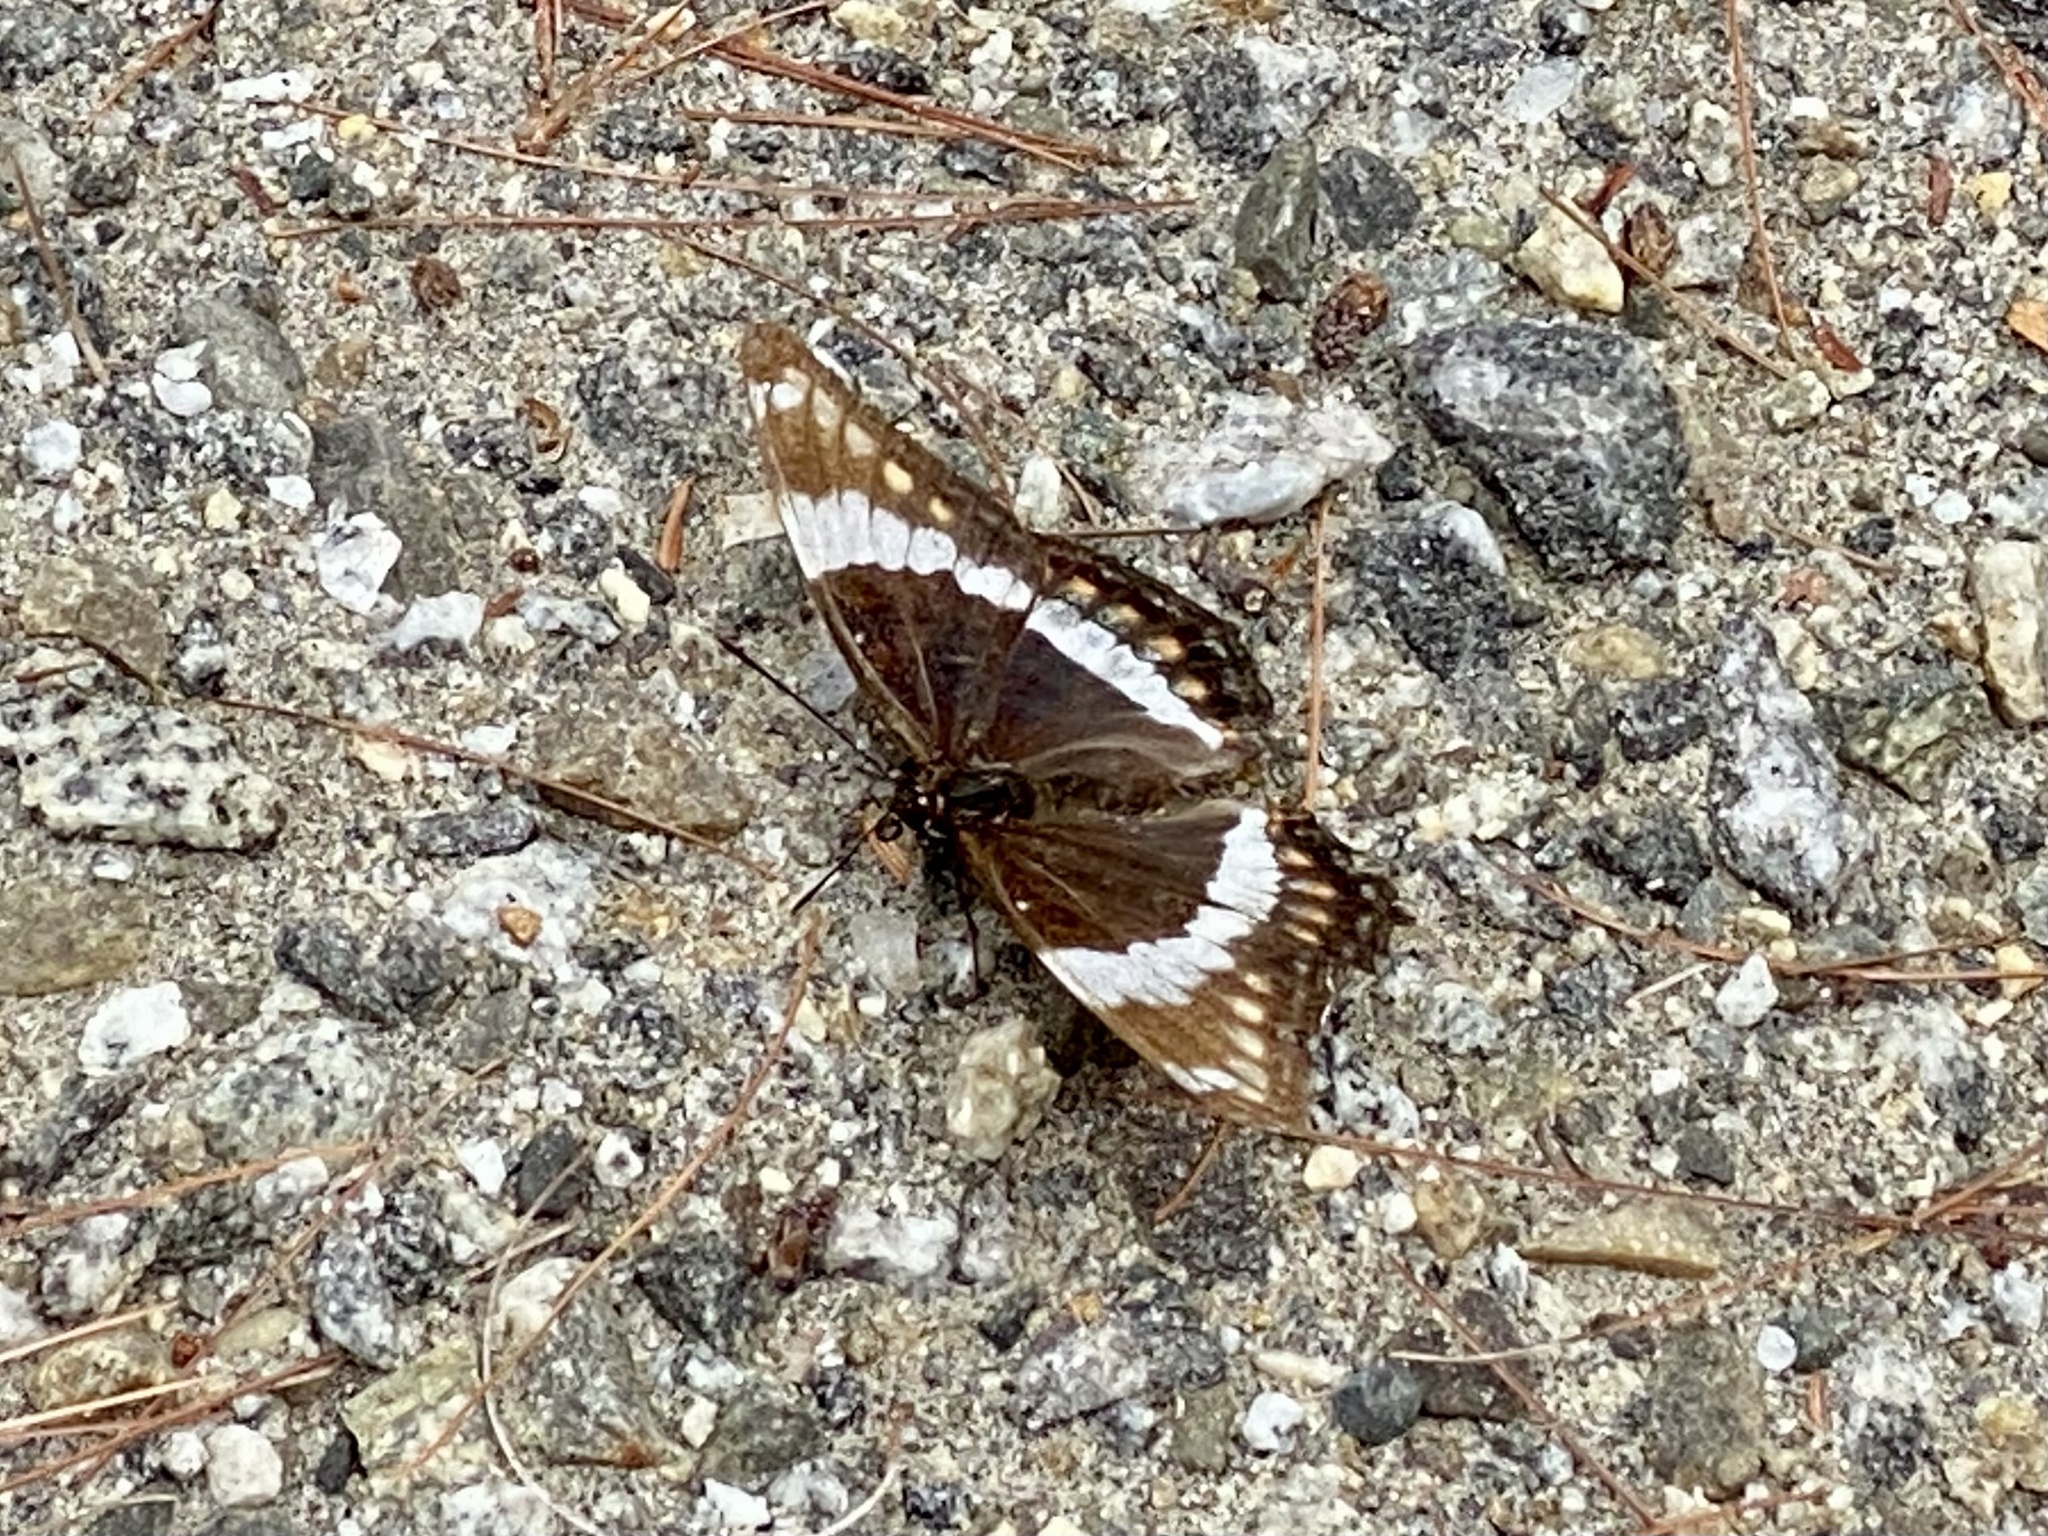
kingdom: Animalia
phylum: Arthropoda
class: Insecta
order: Lepidoptera
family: Nymphalidae
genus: Limenitis
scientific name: Limenitis arthemis
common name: Red-spotted admiral
